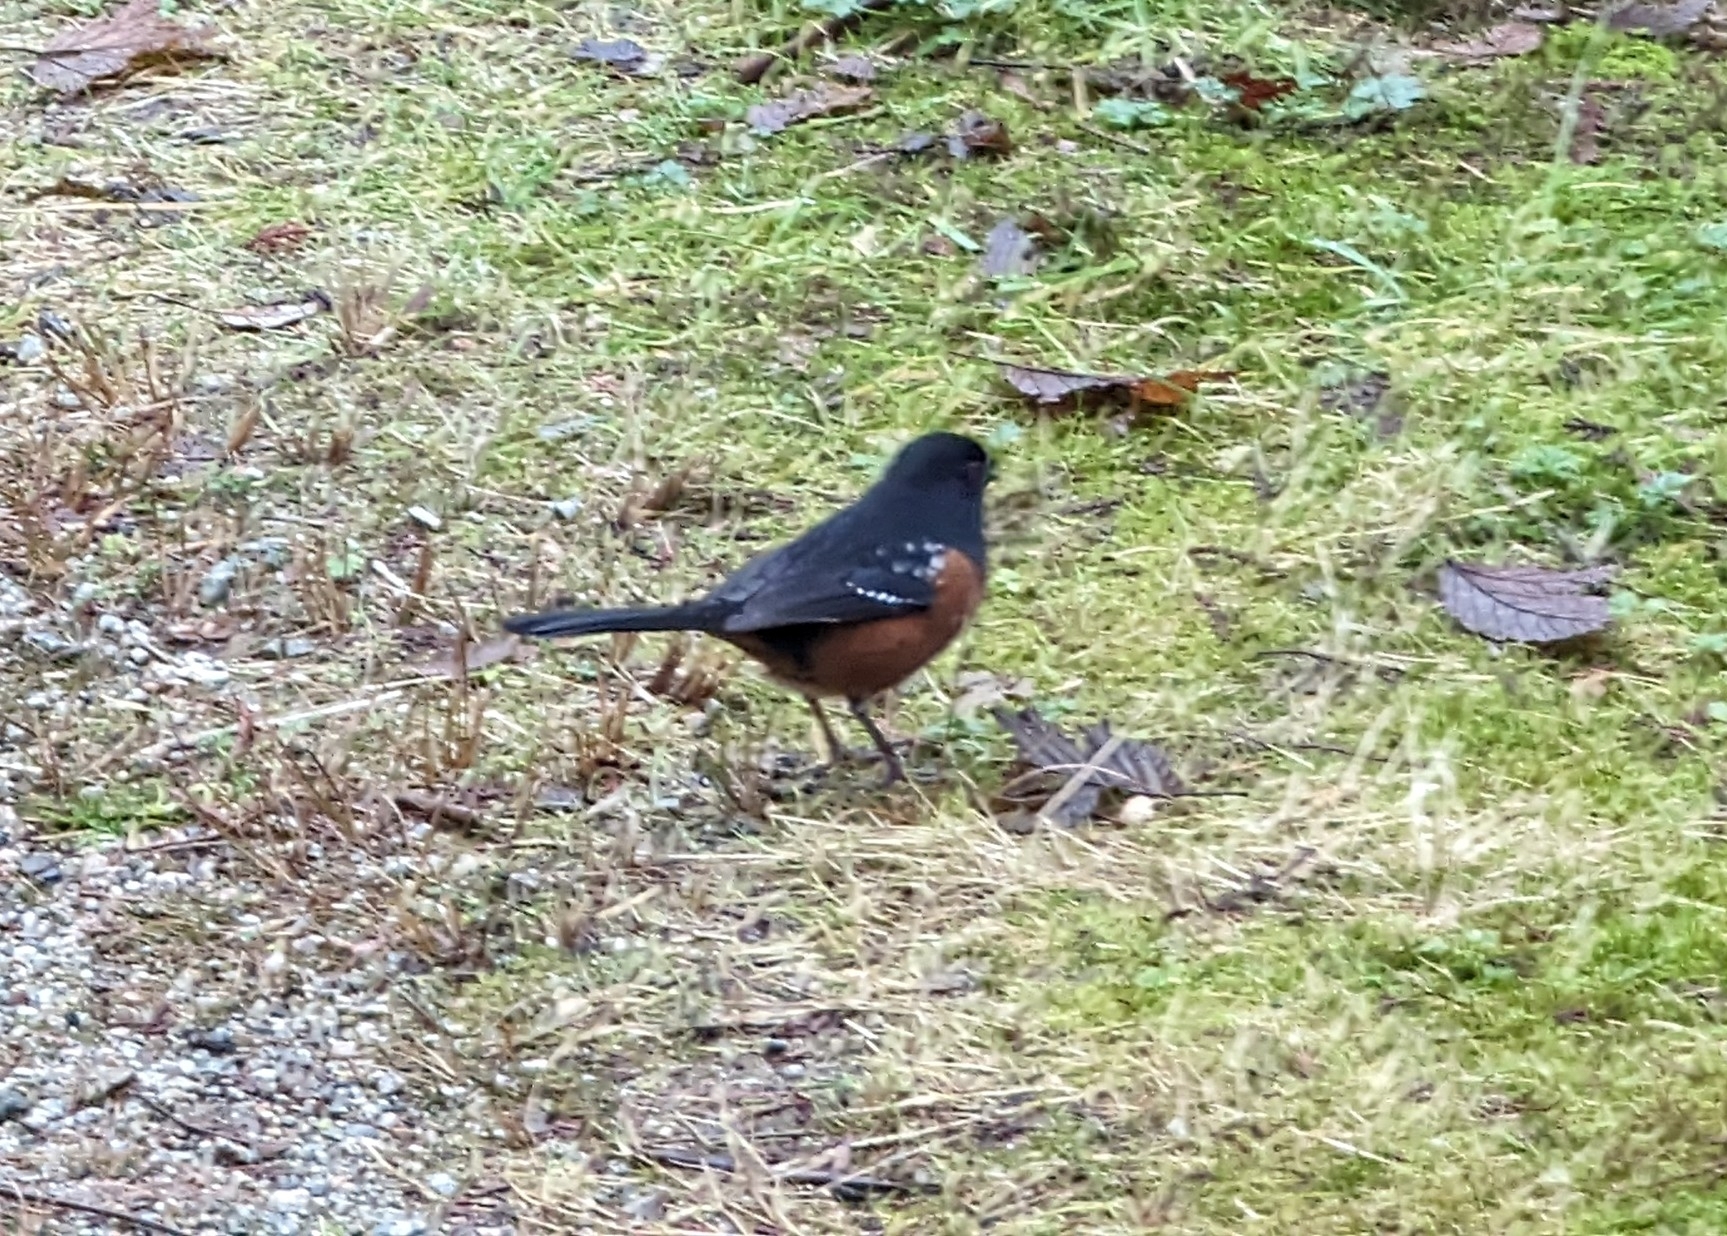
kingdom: Animalia
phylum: Chordata
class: Aves
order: Passeriformes
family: Passerellidae
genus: Pipilo
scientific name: Pipilo maculatus
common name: Spotted towhee
